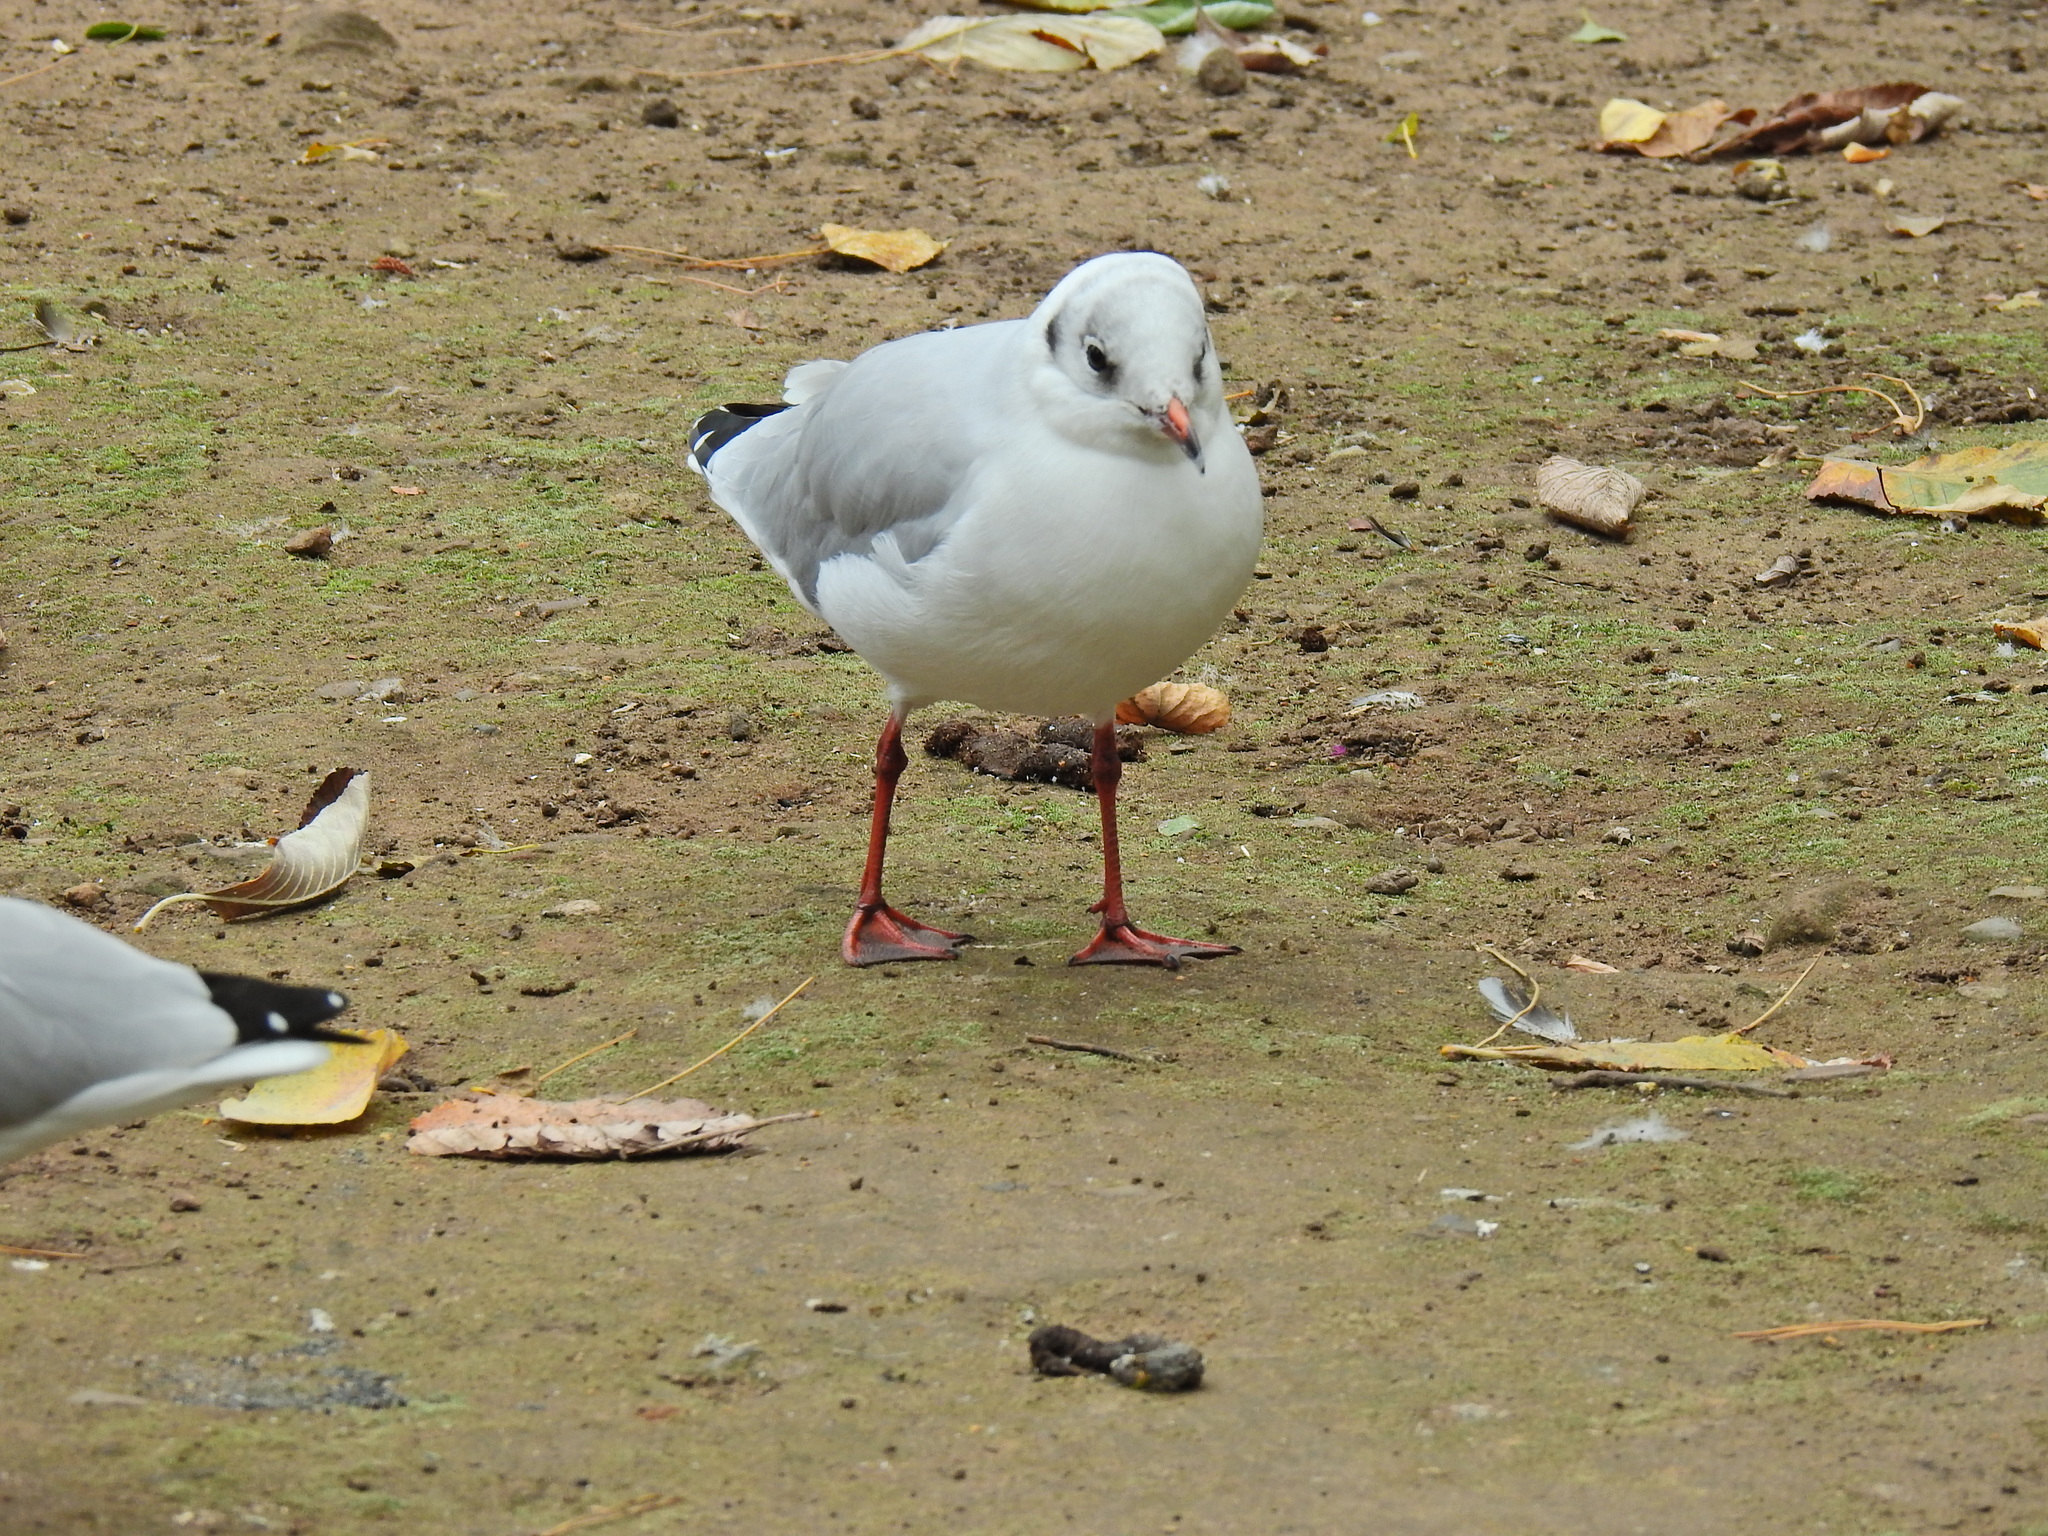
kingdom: Animalia
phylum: Chordata
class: Aves
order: Charadriiformes
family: Laridae
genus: Chroicocephalus
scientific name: Chroicocephalus ridibundus
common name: Black-headed gull
